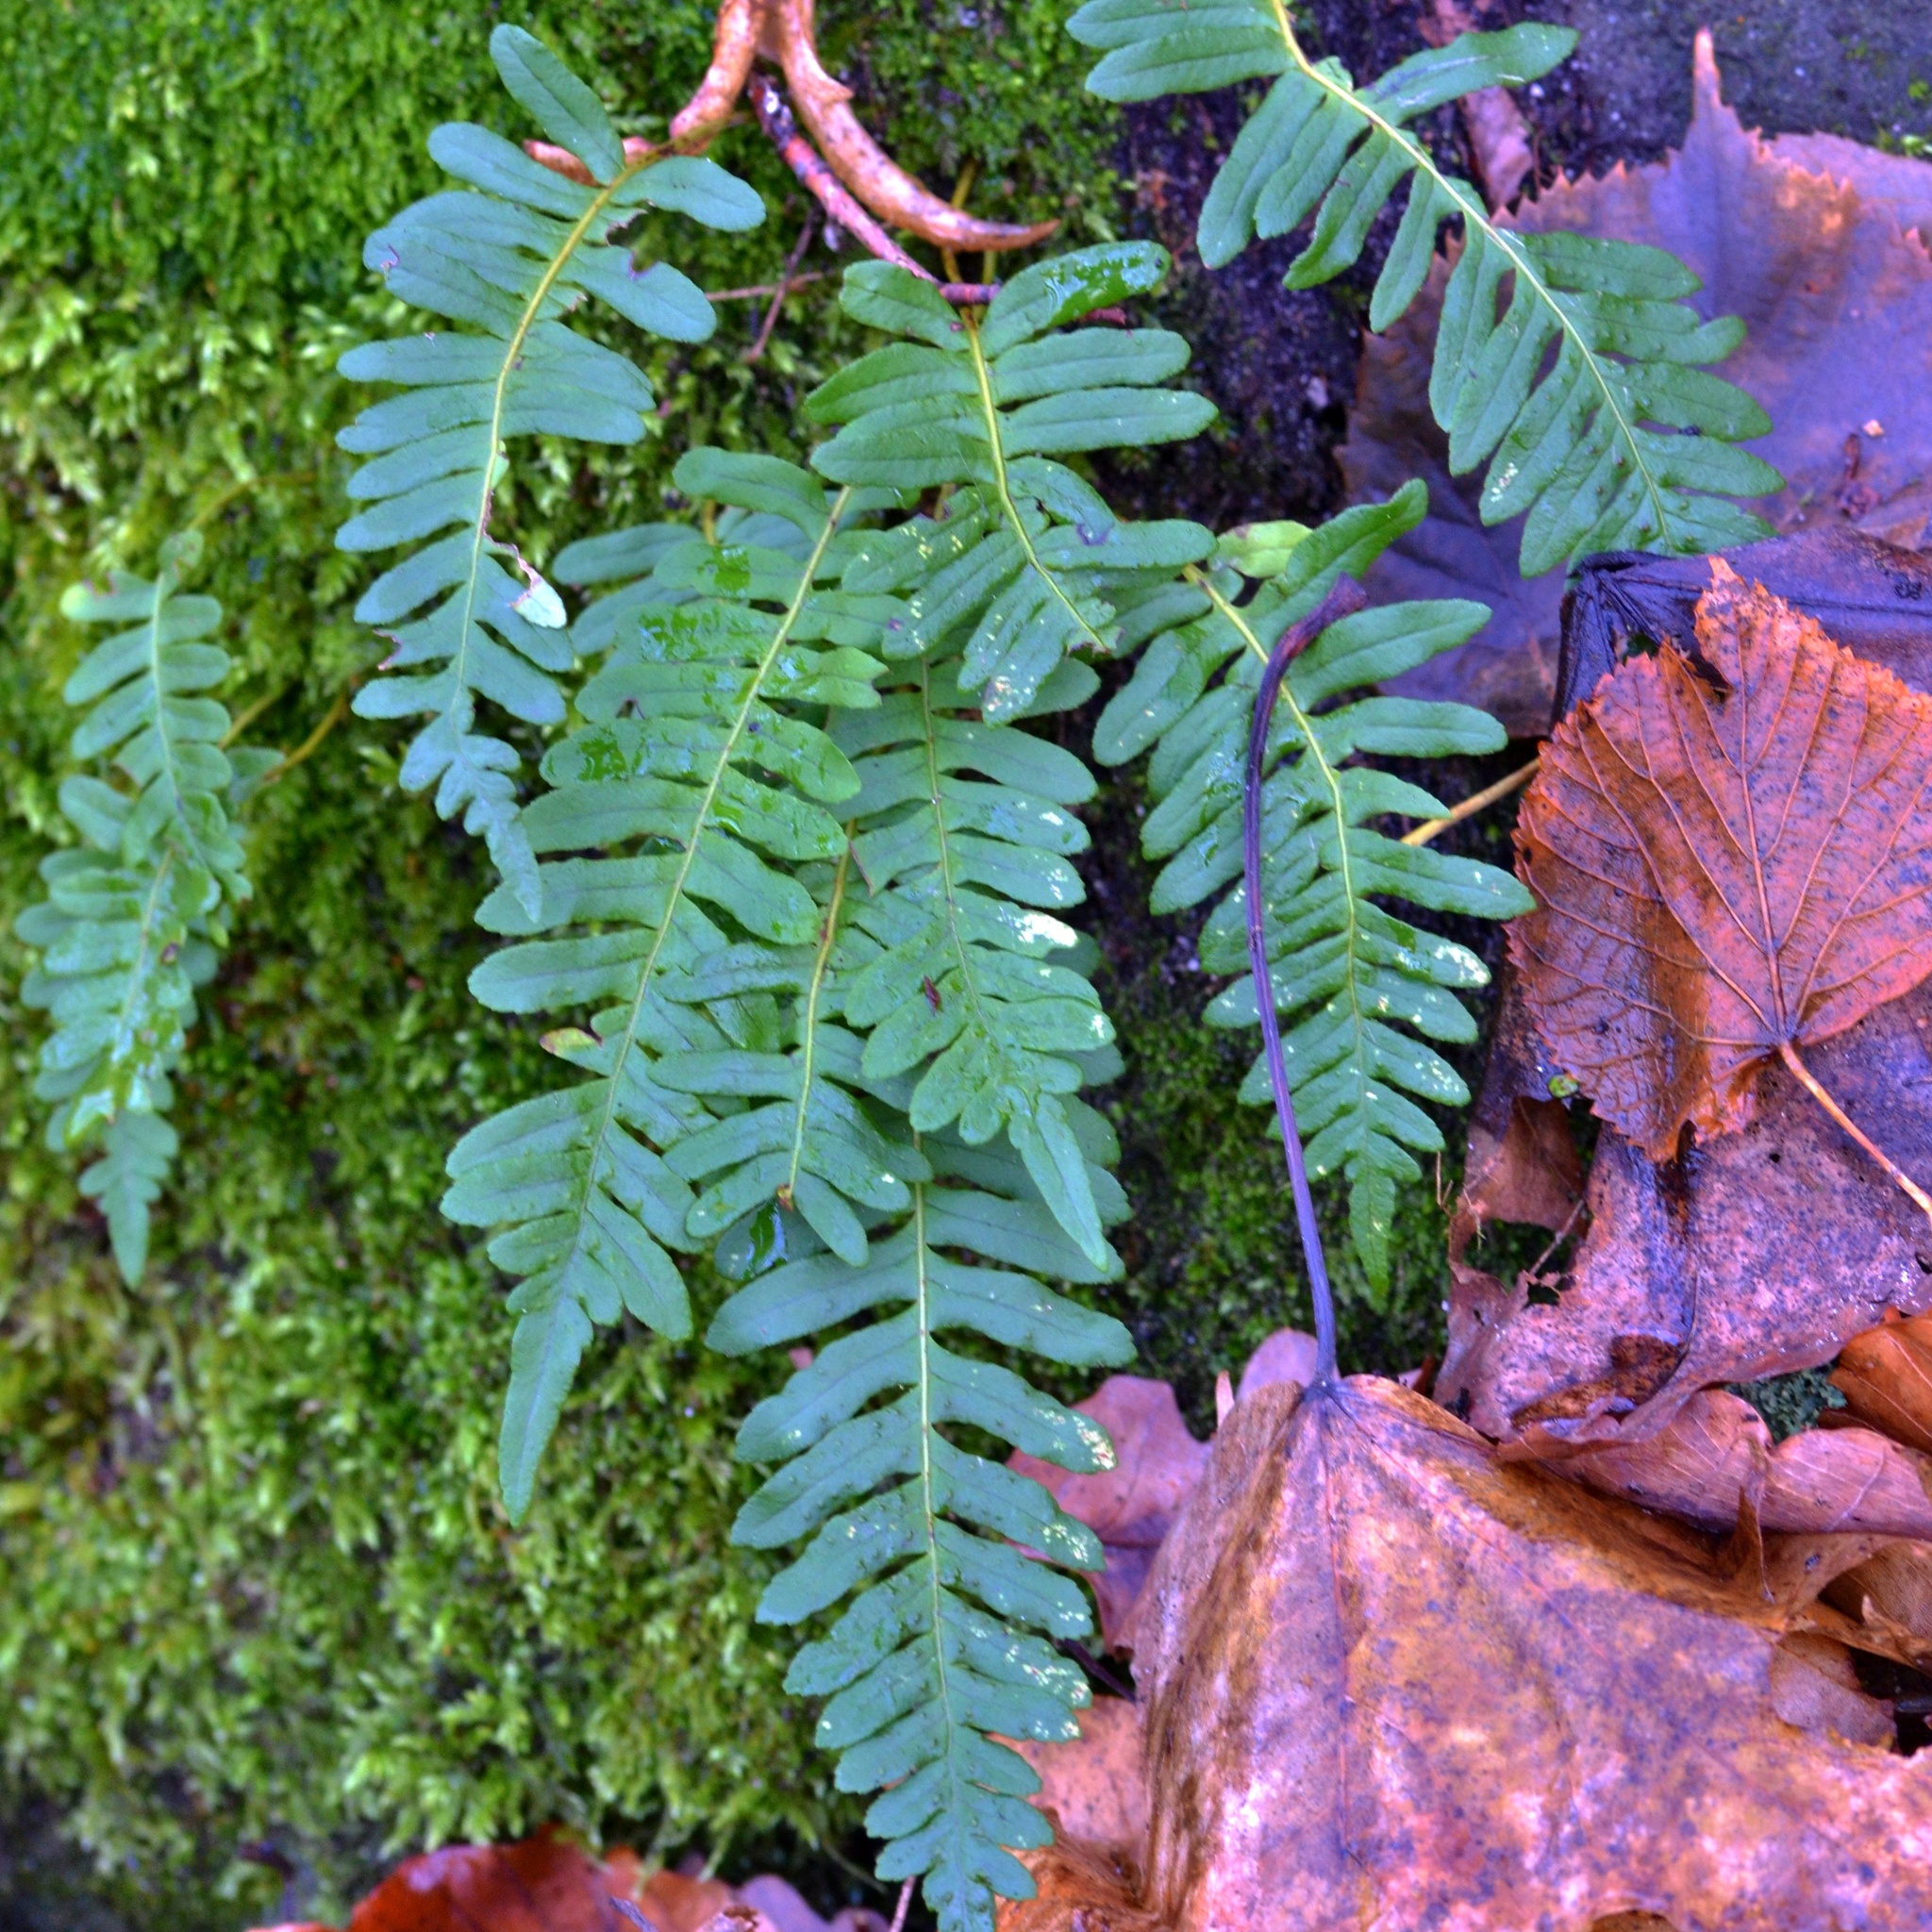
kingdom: Plantae
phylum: Tracheophyta
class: Polypodiopsida
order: Polypodiales
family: Polypodiaceae
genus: Polypodium
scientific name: Polypodium vulgare
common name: Common polypody
